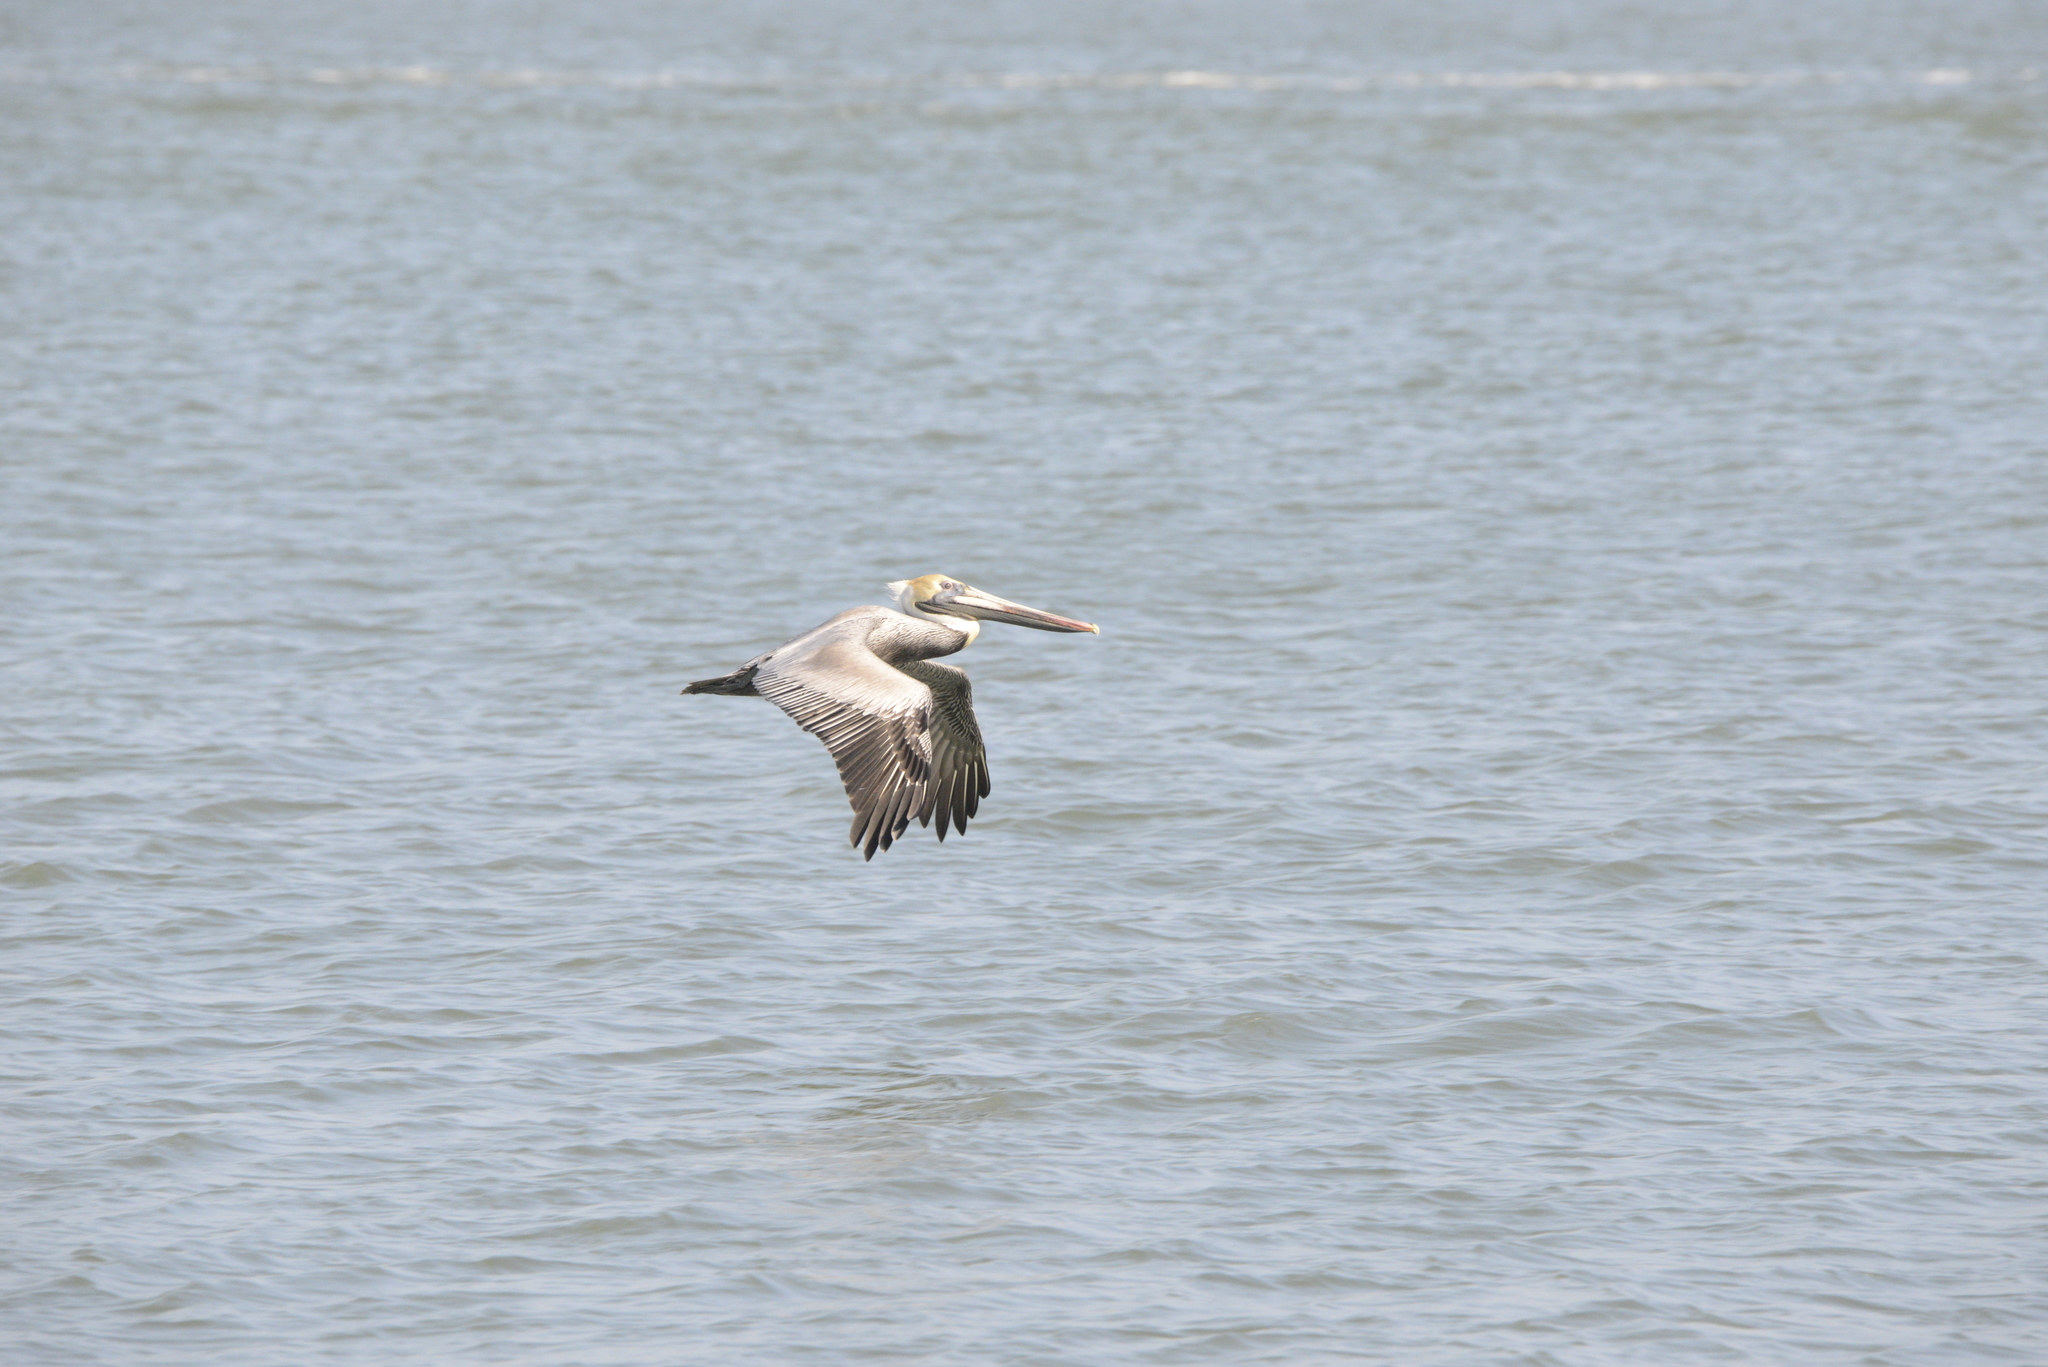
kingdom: Animalia
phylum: Chordata
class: Aves
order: Pelecaniformes
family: Pelecanidae
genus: Pelecanus
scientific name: Pelecanus occidentalis
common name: Brown pelican
